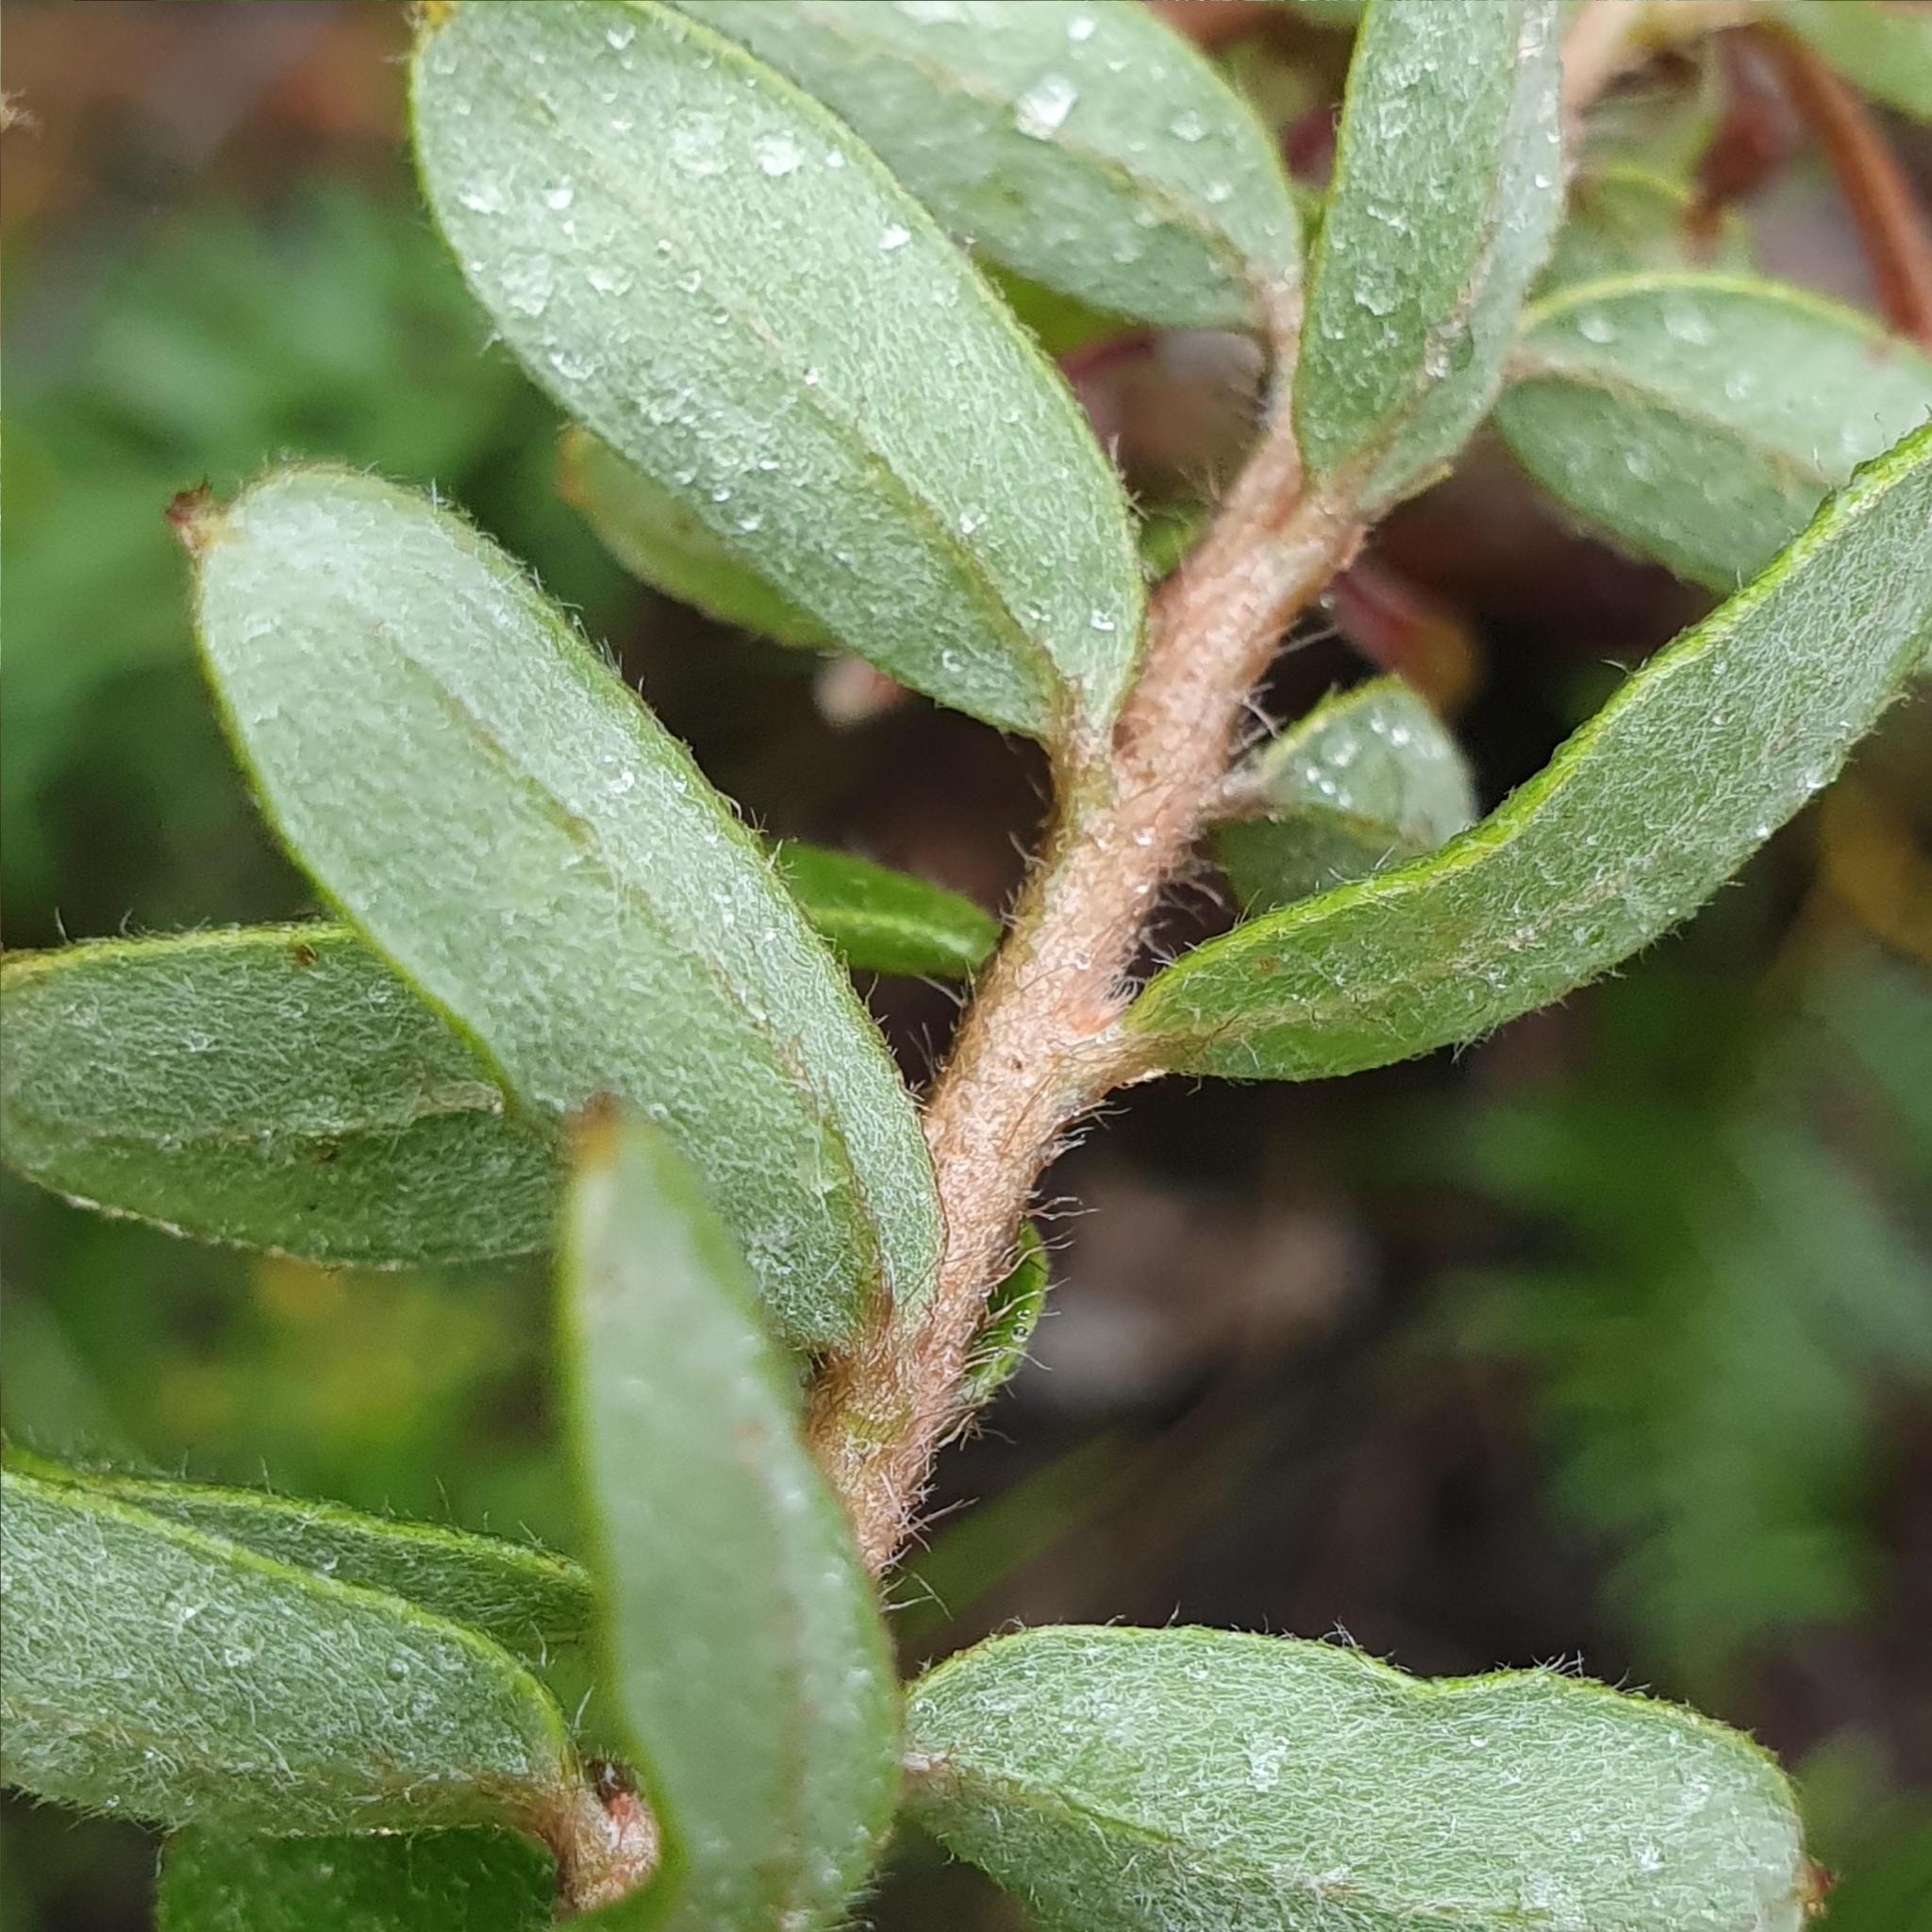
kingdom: Plantae
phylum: Tracheophyta
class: Magnoliopsida
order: Proteales
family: Proteaceae
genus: Grevillea
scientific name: Grevillea buxifolia
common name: Grey spiderflower
